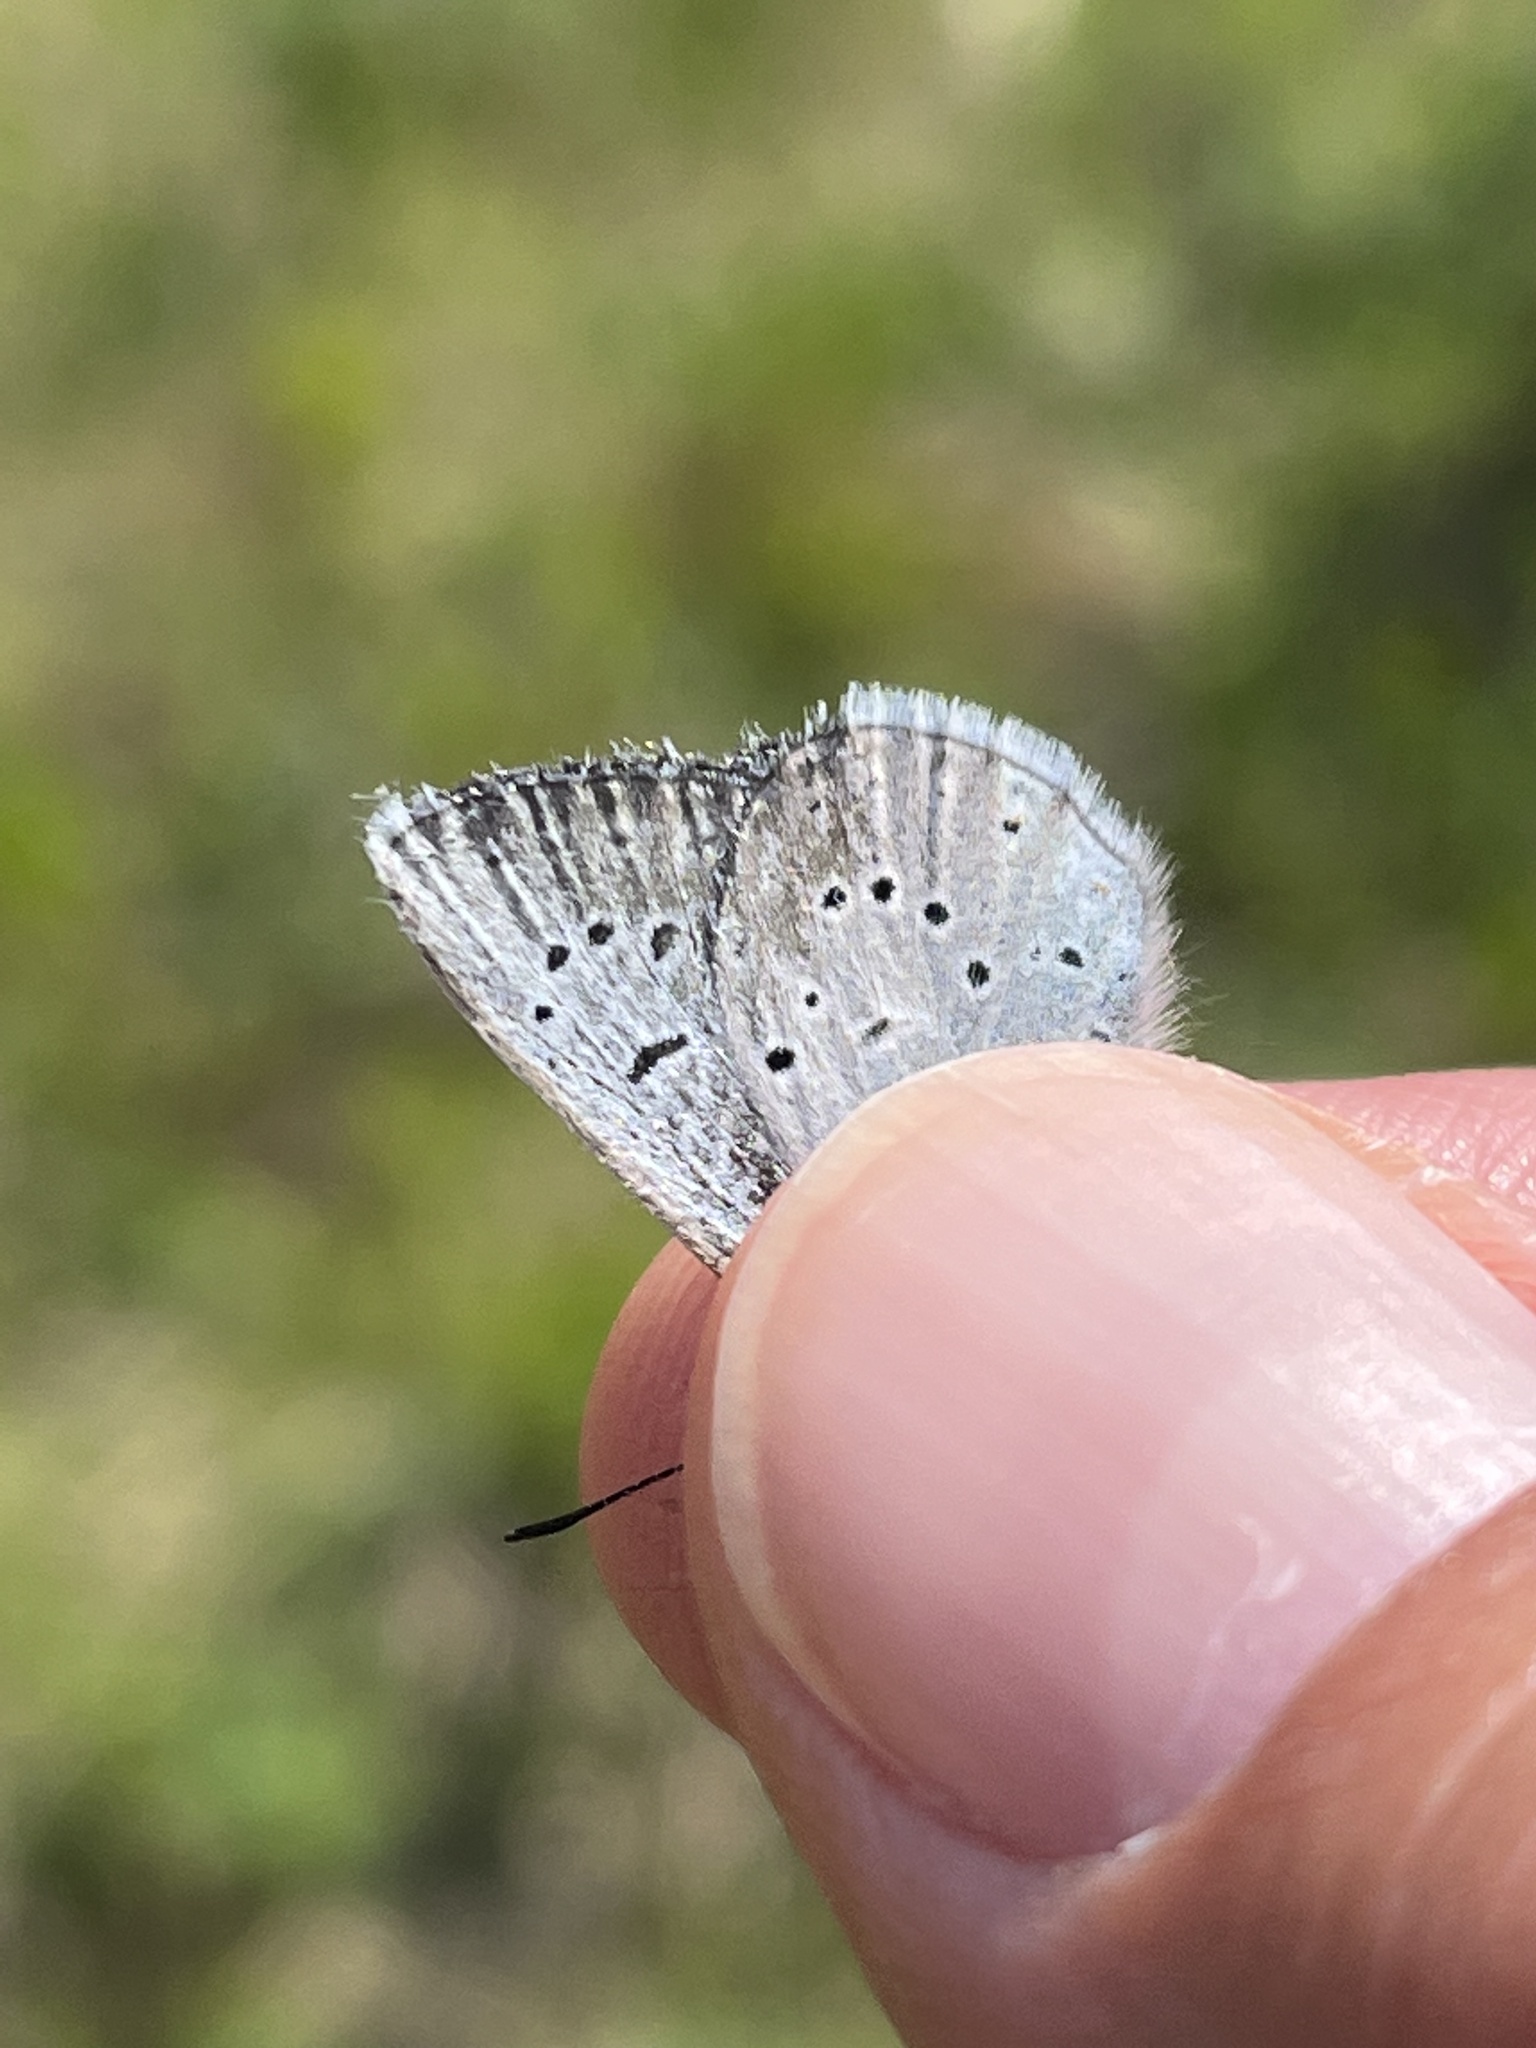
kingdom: Animalia
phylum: Arthropoda
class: Insecta
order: Lepidoptera
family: Lycaenidae
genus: Icaricia
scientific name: Icaricia saepiolus
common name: Greenish blue
